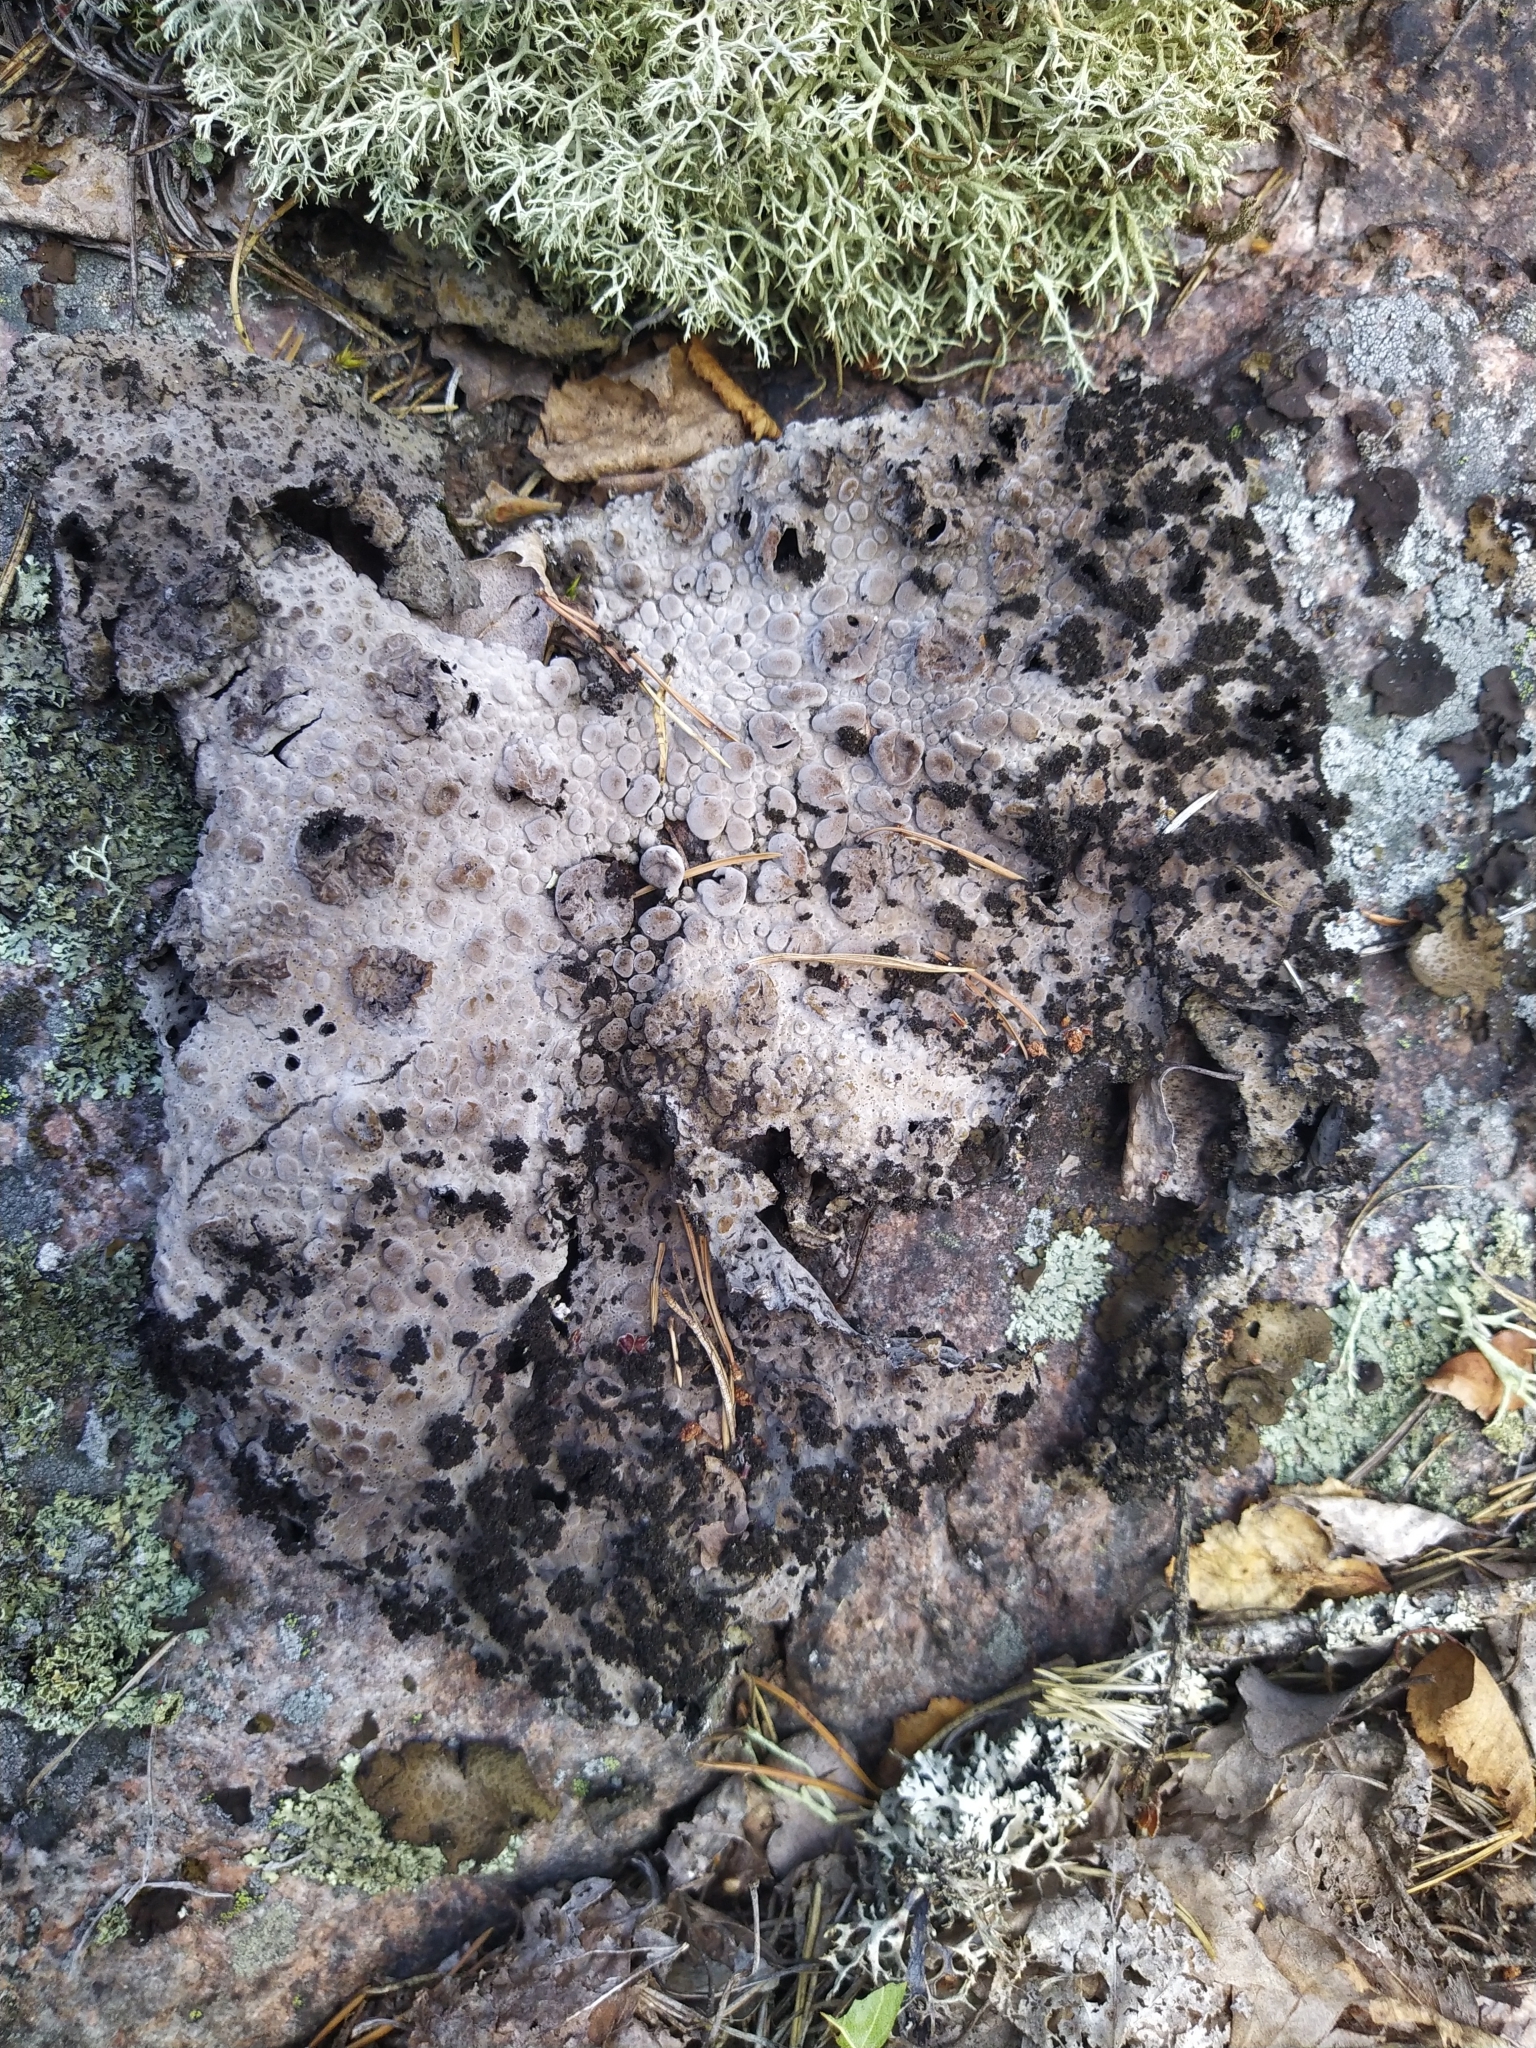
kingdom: Fungi
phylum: Ascomycota
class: Lecanoromycetes
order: Umbilicariales
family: Umbilicariaceae
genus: Lasallia
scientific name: Lasallia pustulata
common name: Blistered toadskin lichen
